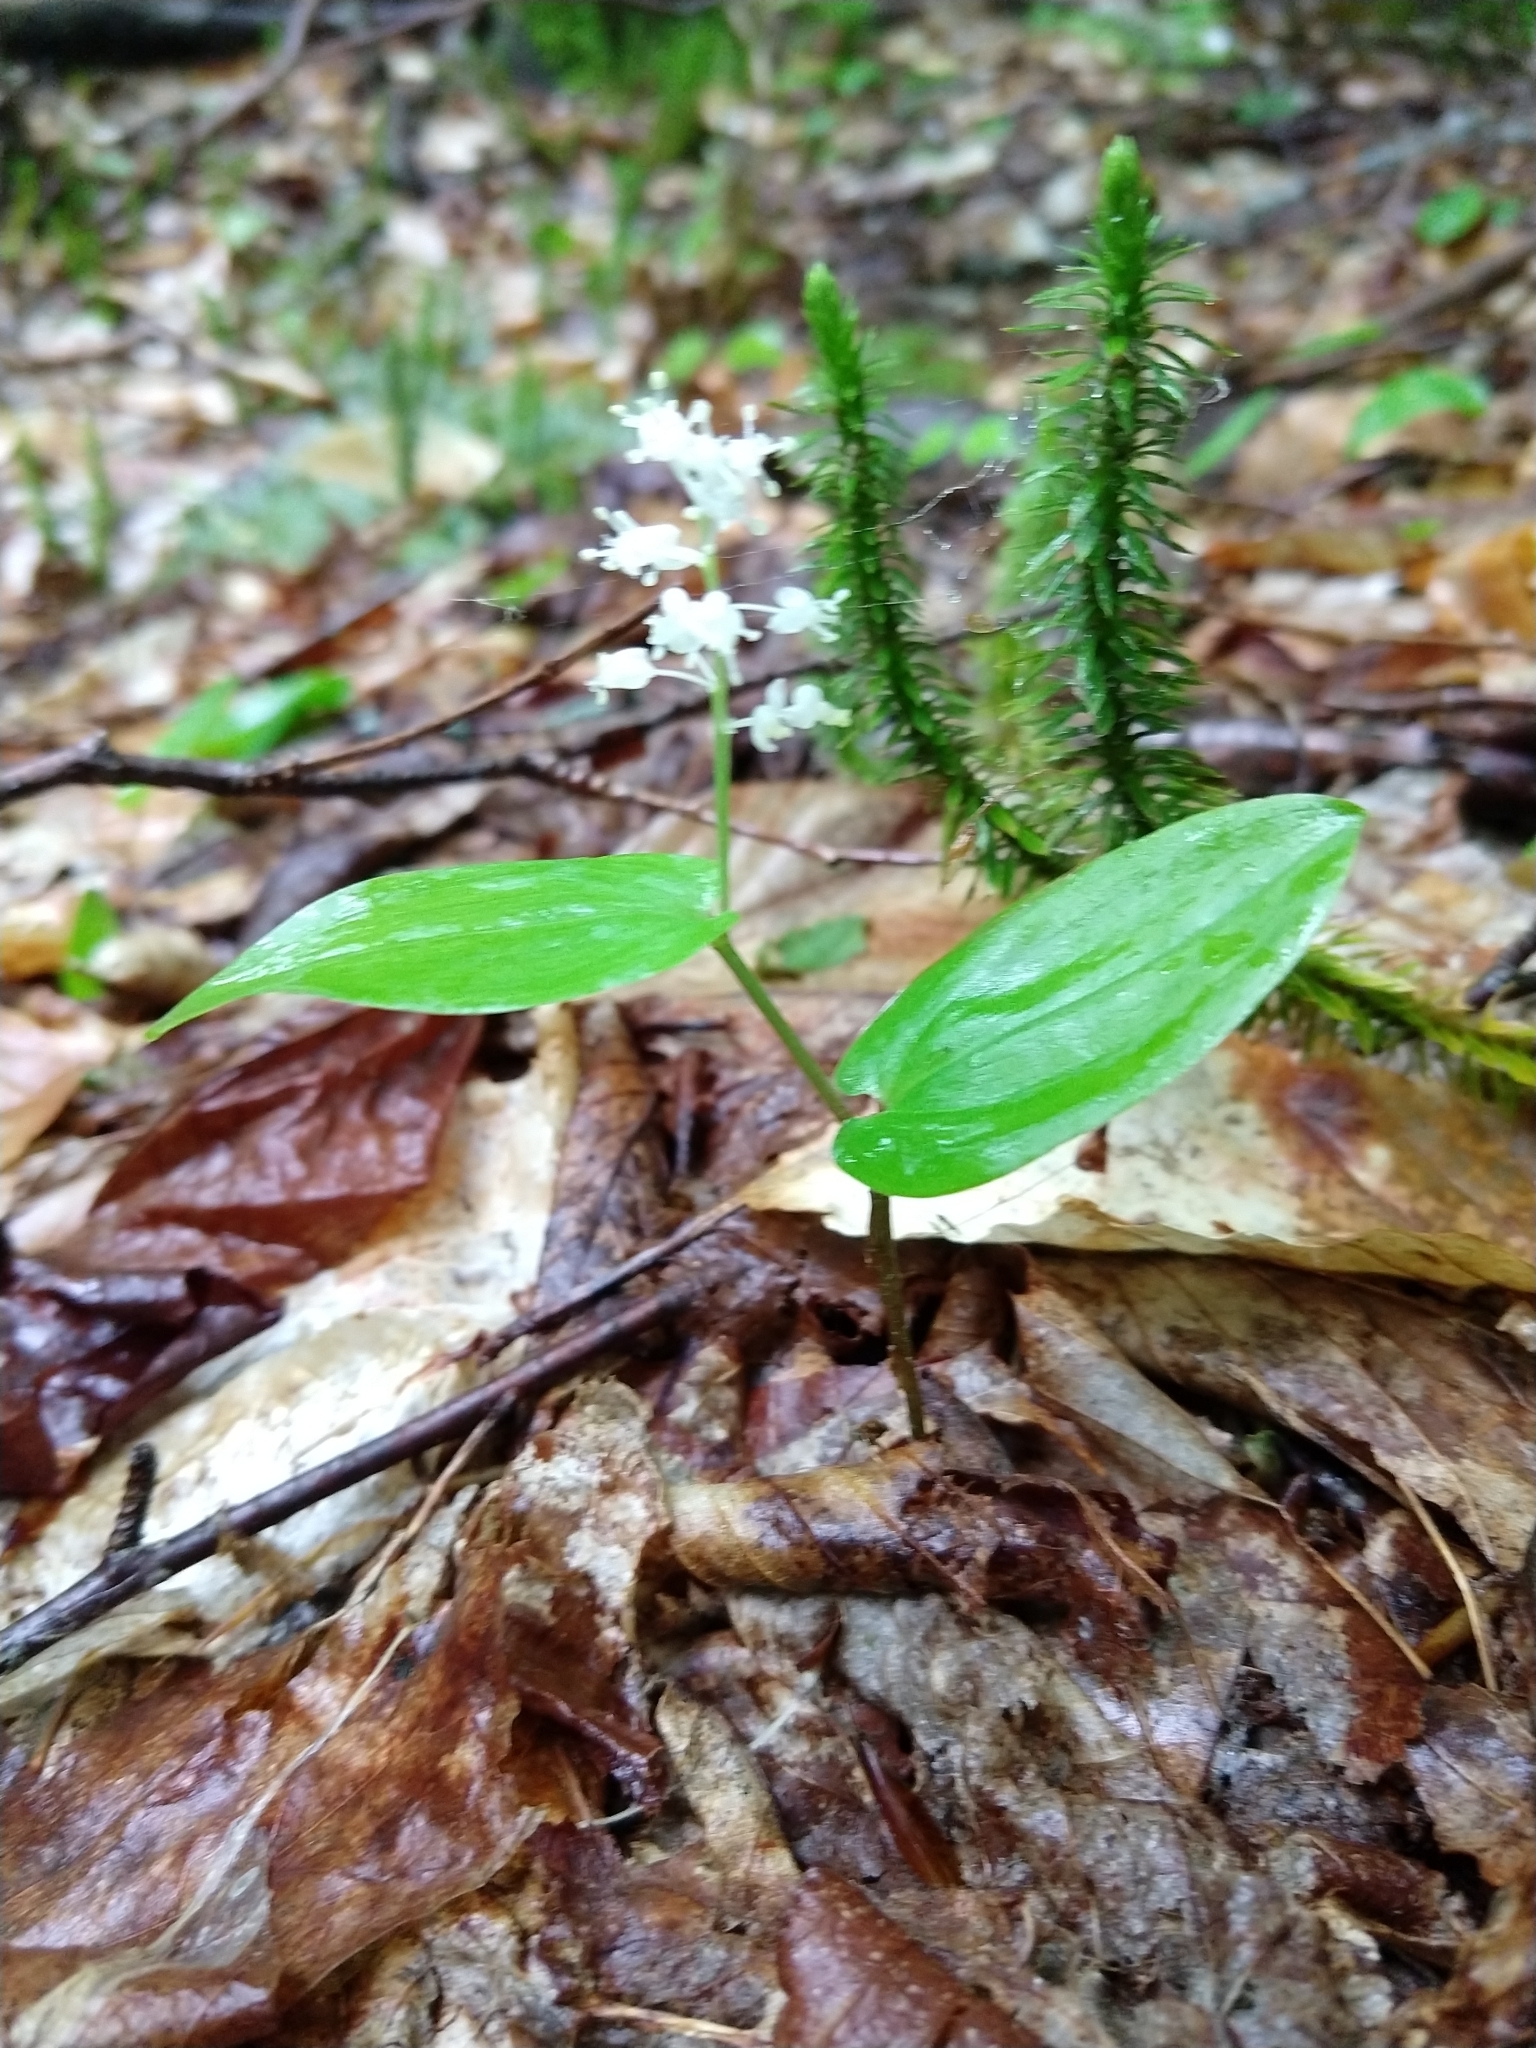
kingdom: Plantae
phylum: Tracheophyta
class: Liliopsida
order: Asparagales
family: Asparagaceae
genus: Maianthemum
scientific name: Maianthemum canadense
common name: False lily-of-the-valley
